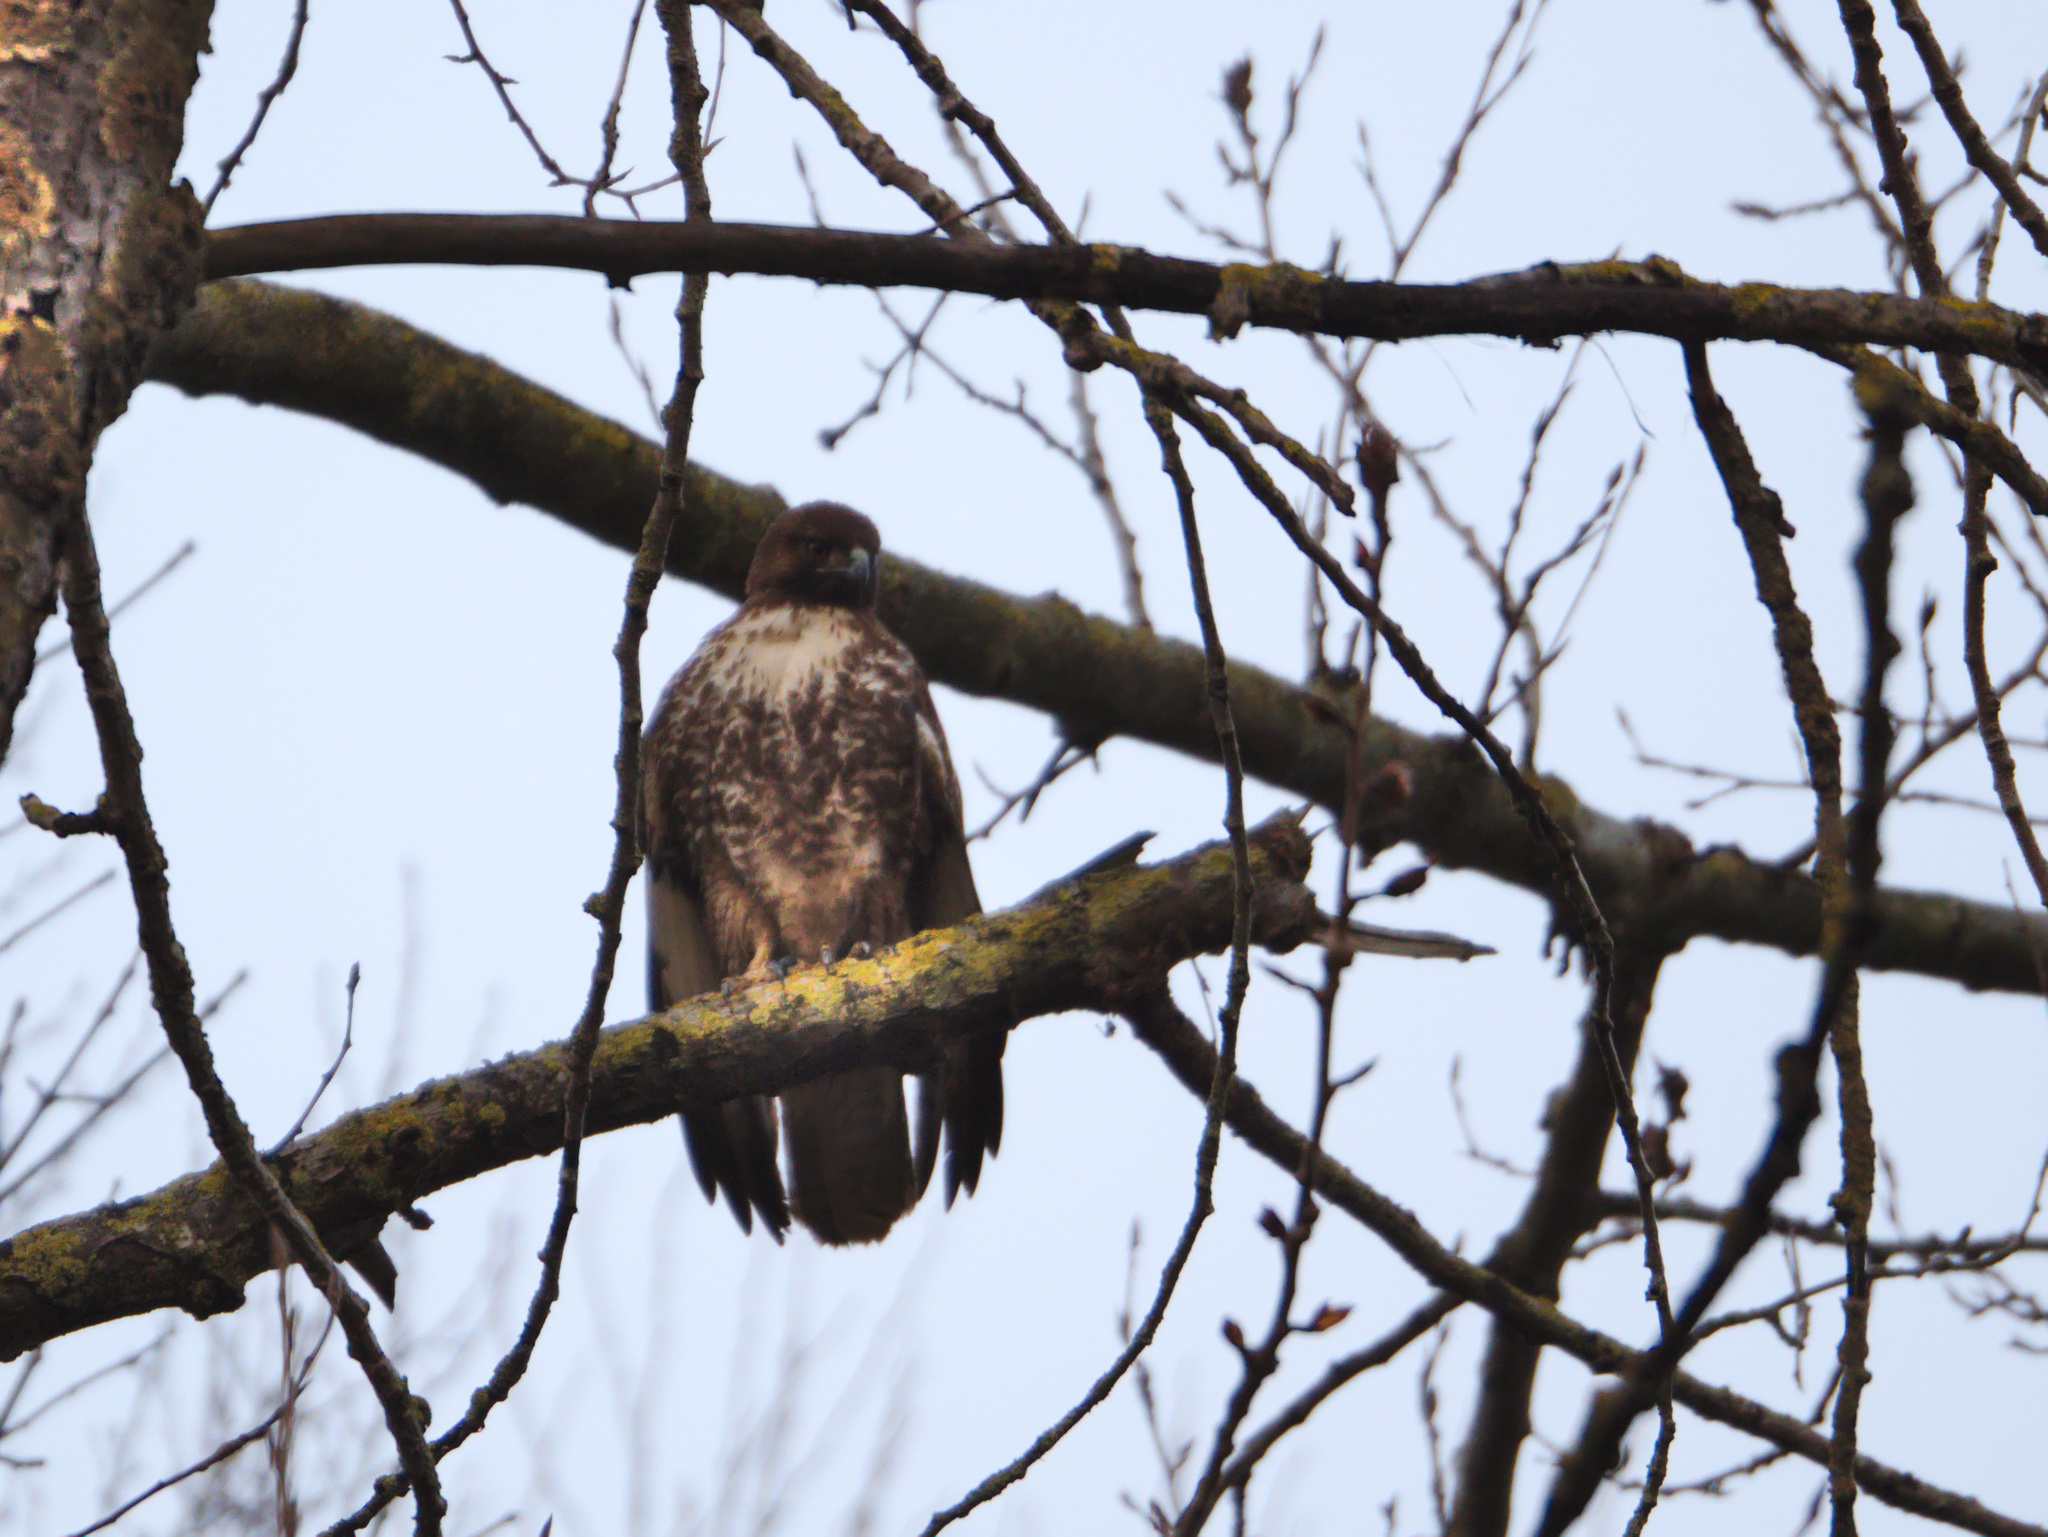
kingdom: Animalia
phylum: Chordata
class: Aves
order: Accipitriformes
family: Accipitridae
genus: Buteo
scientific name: Buteo jamaicensis
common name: Red-tailed hawk
